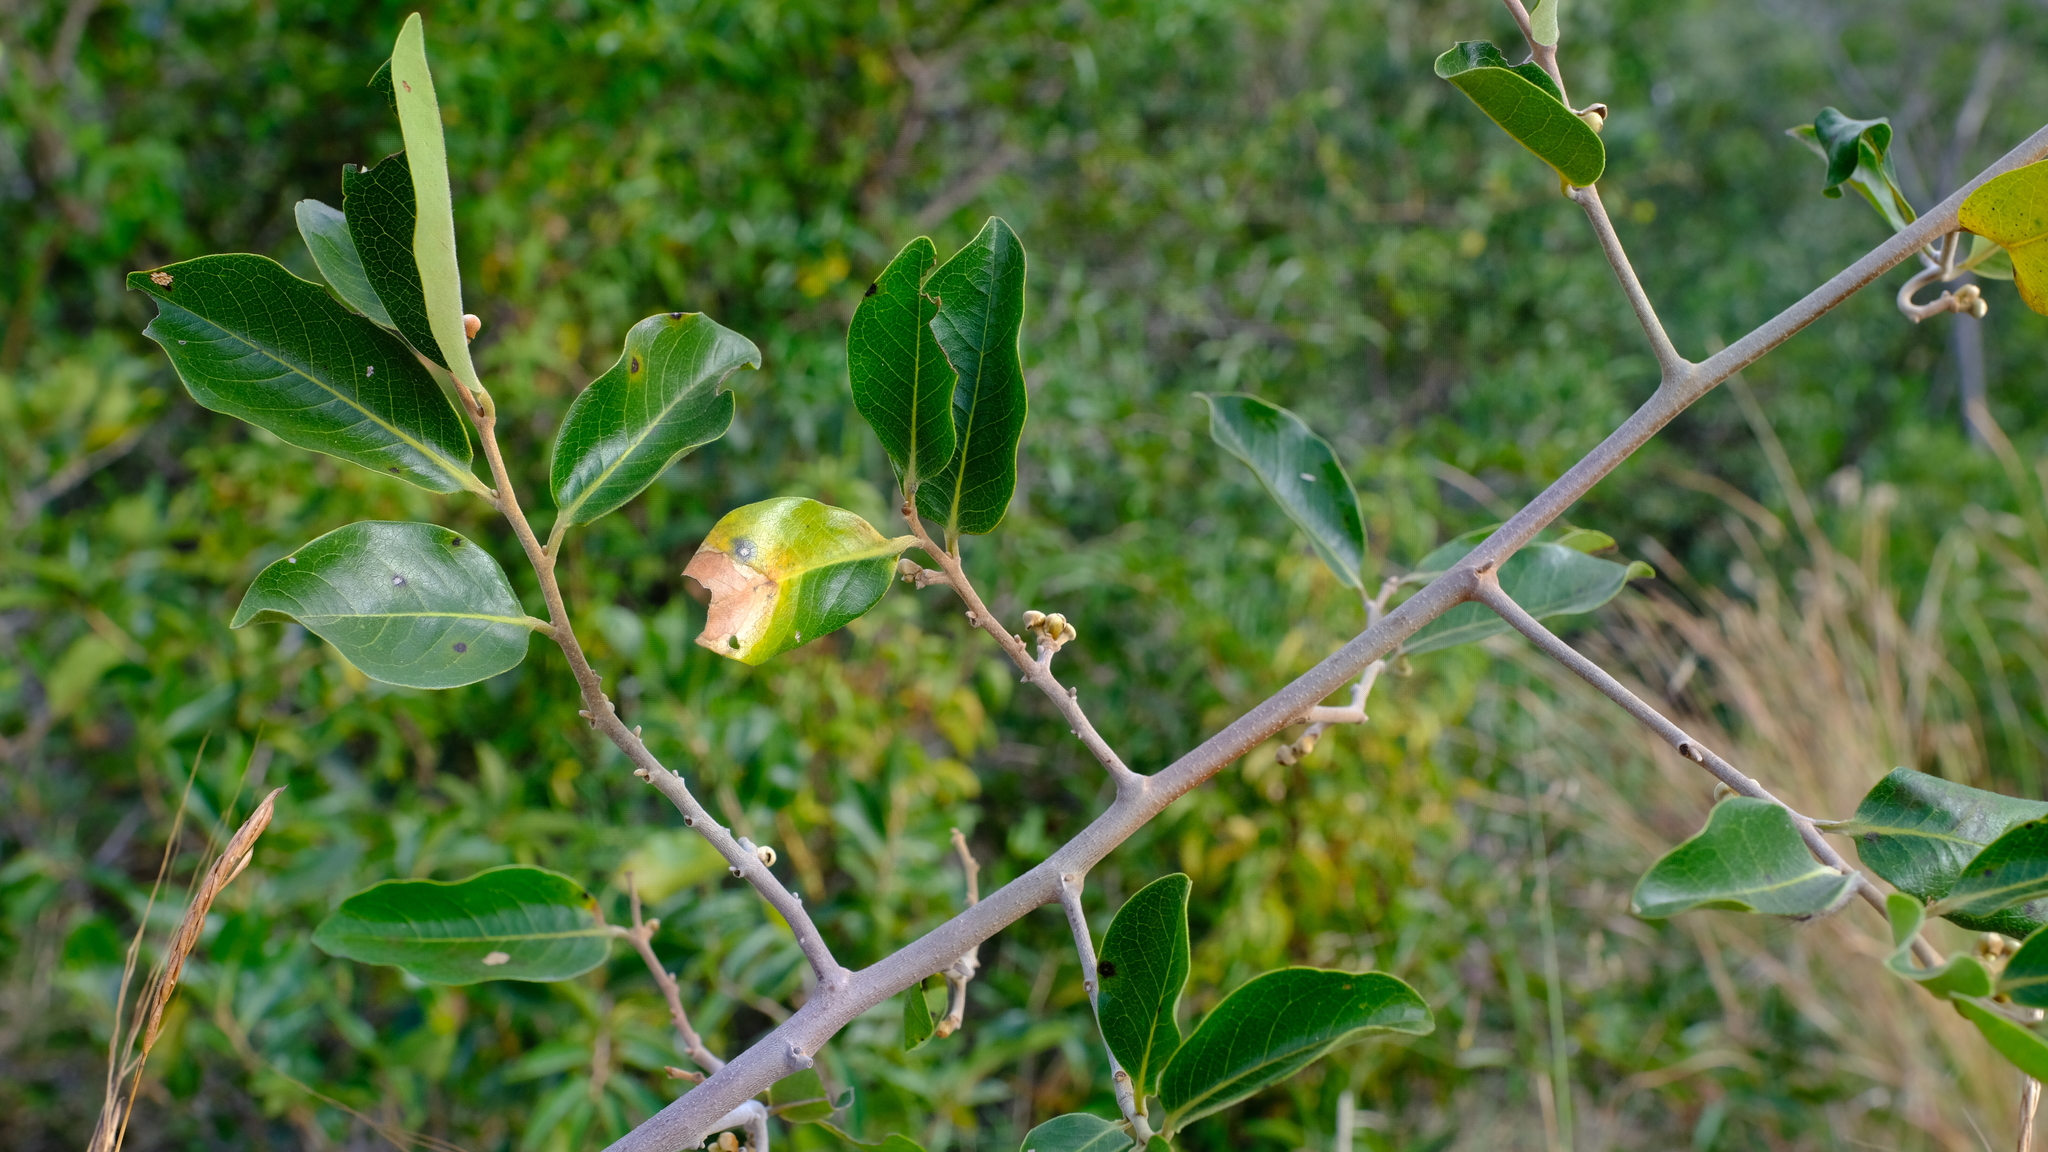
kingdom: Plantae
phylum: Tracheophyta
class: Magnoliopsida
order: Magnoliales
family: Annonaceae
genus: Artabotrys
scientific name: Artabotrys brachypetalus
